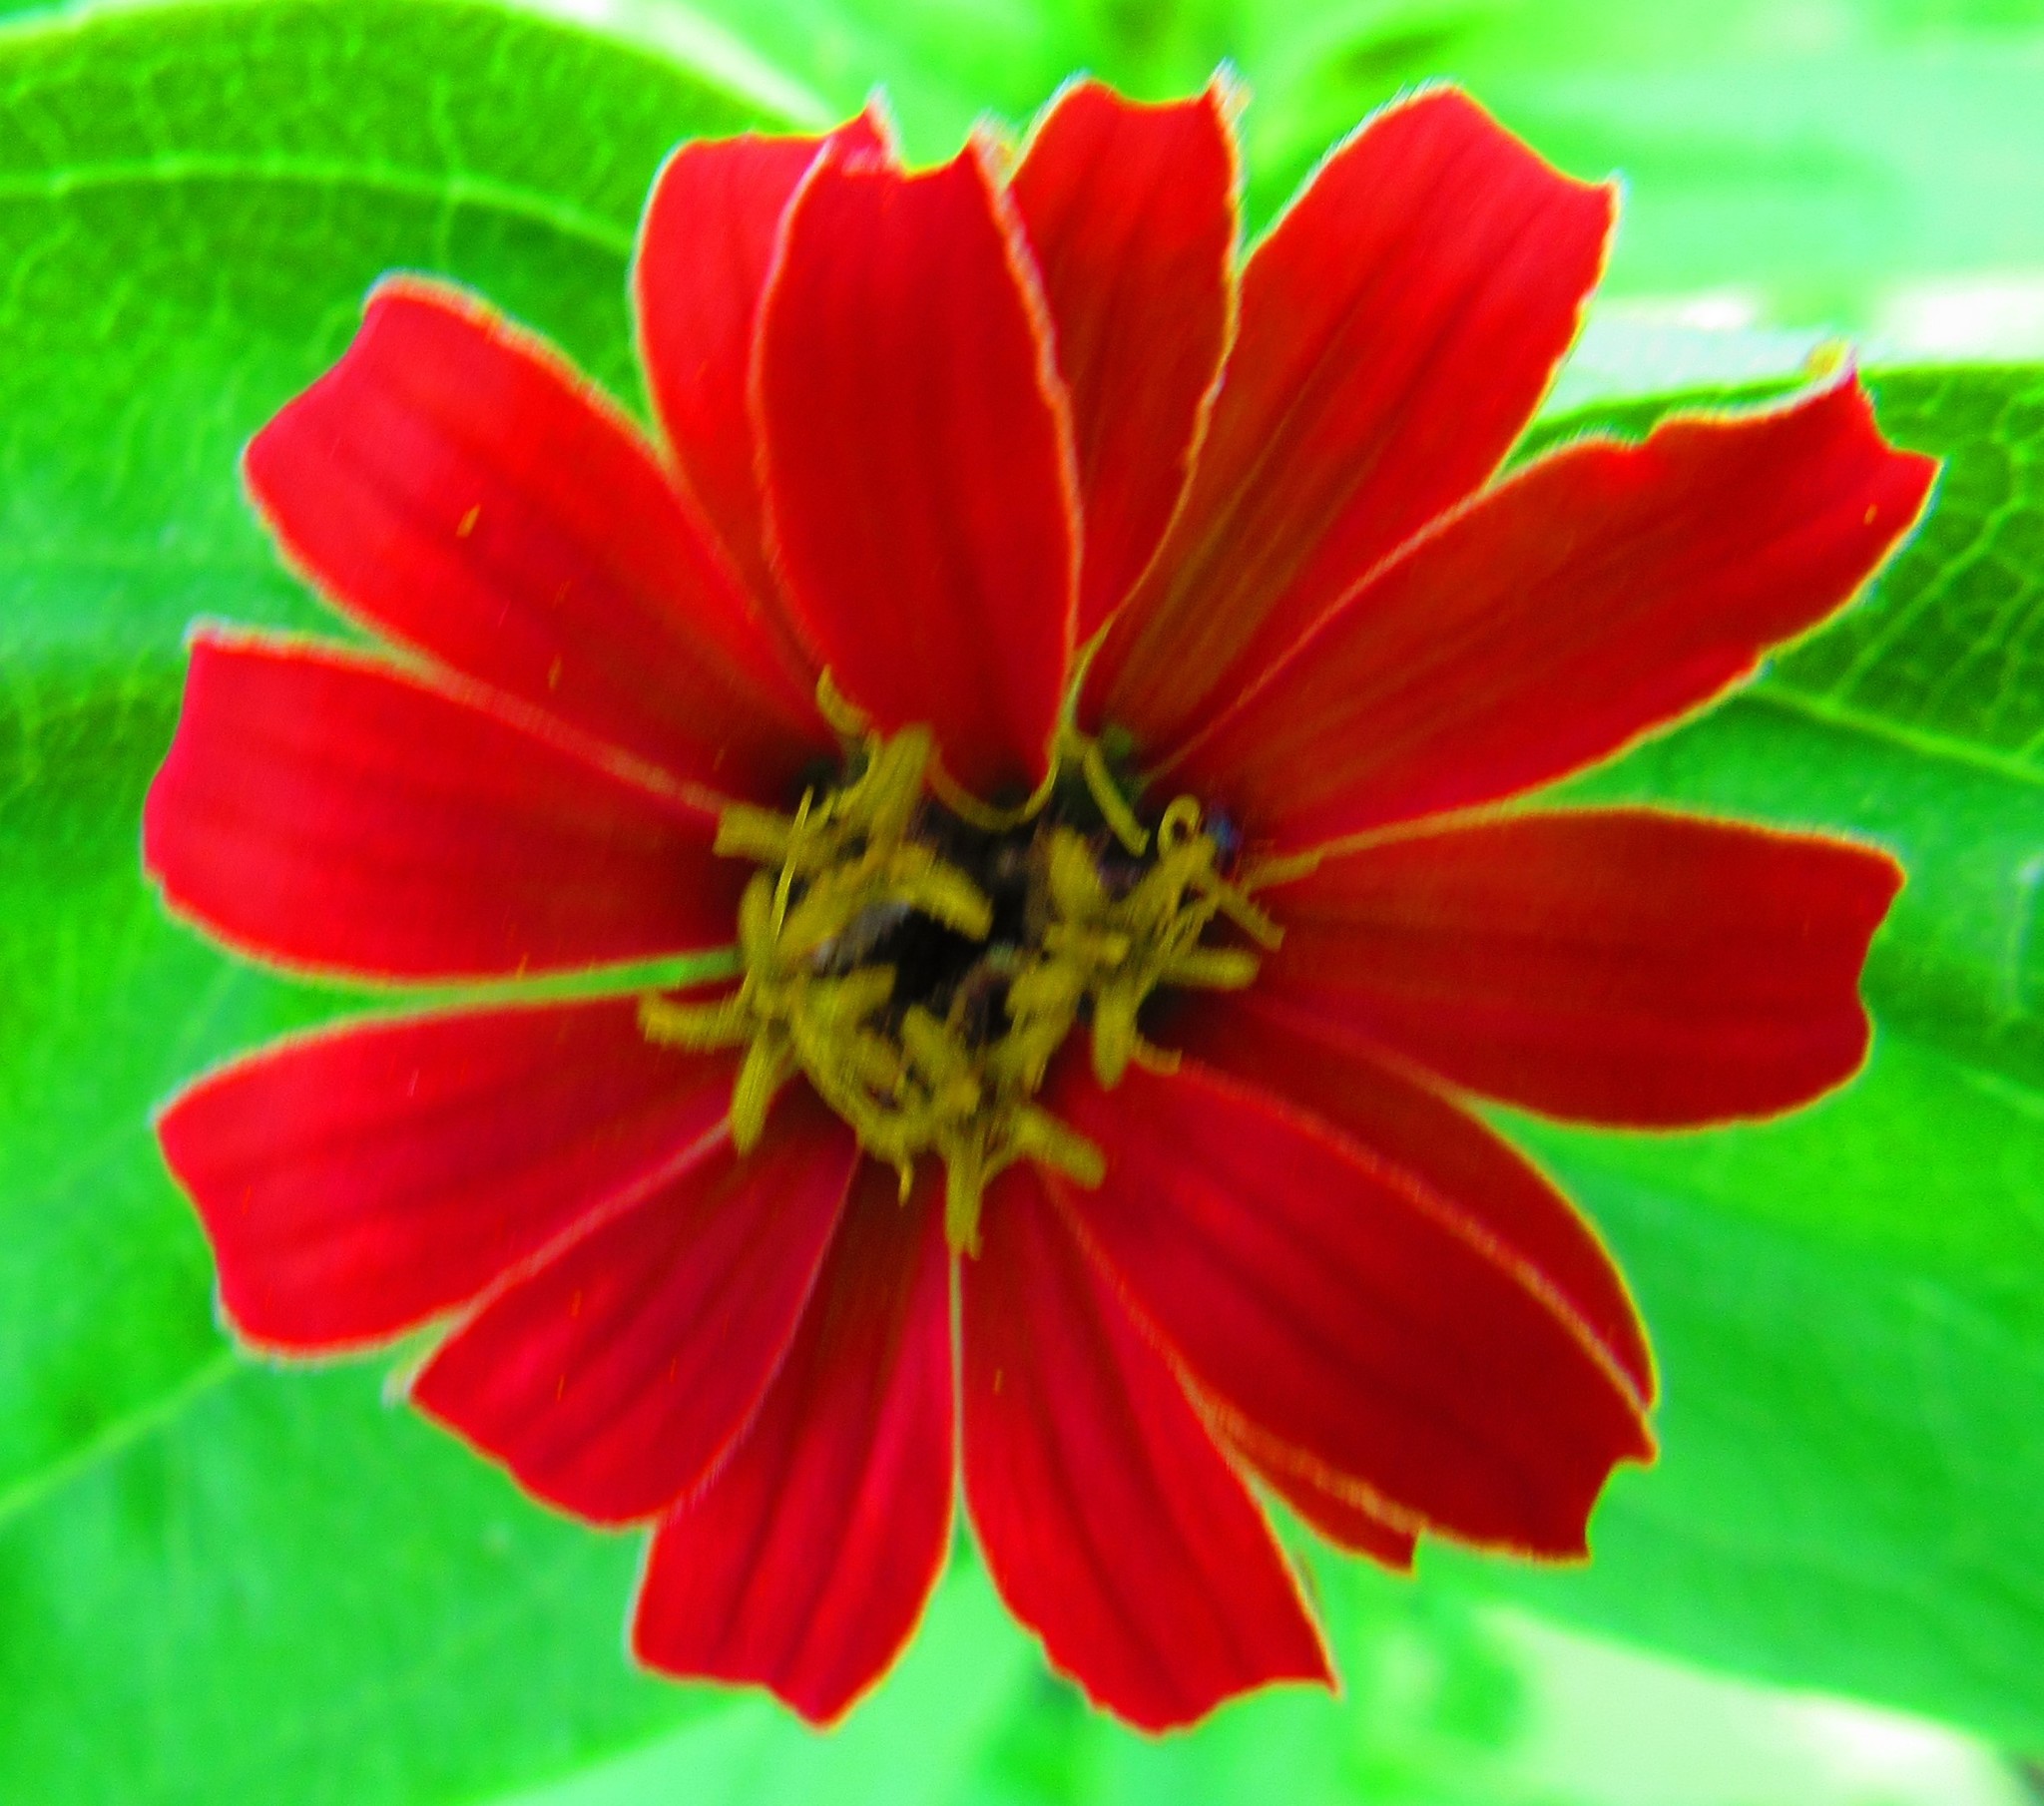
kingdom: Plantae
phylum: Tracheophyta
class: Magnoliopsida
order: Asterales
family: Asteraceae
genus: Zinnia
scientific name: Zinnia elegans
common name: Youth-and-age
